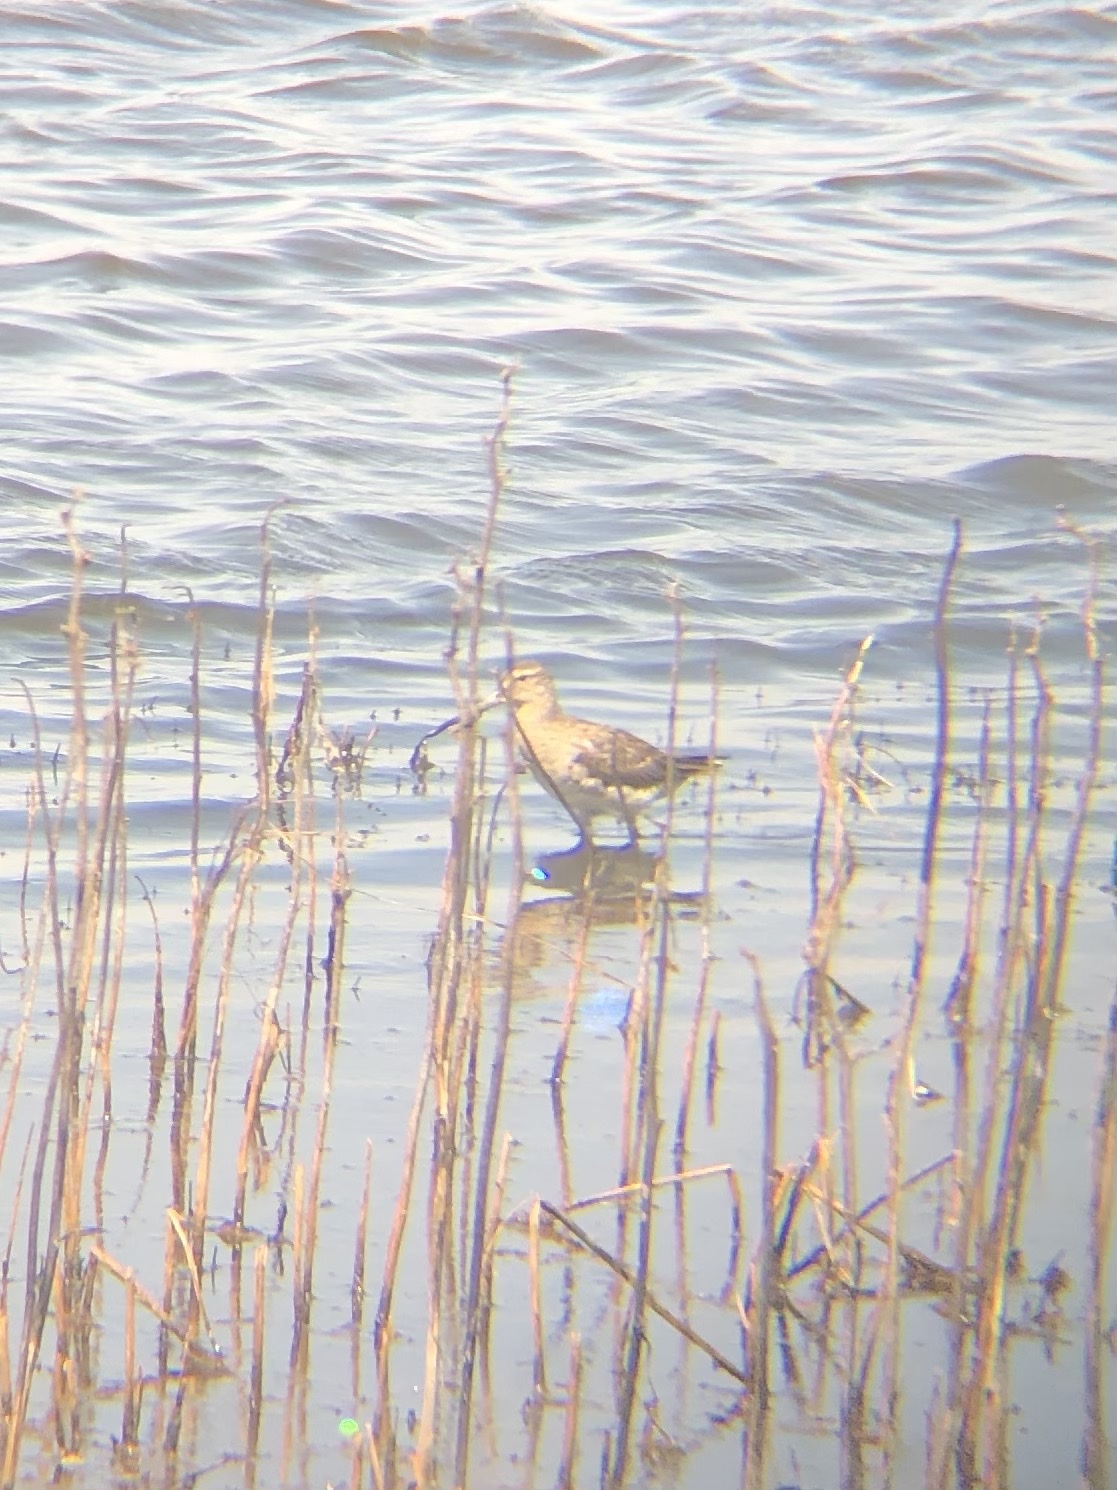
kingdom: Animalia
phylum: Chordata
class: Aves
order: Charadriiformes
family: Scolopacidae
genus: Limnodromus
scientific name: Limnodromus
